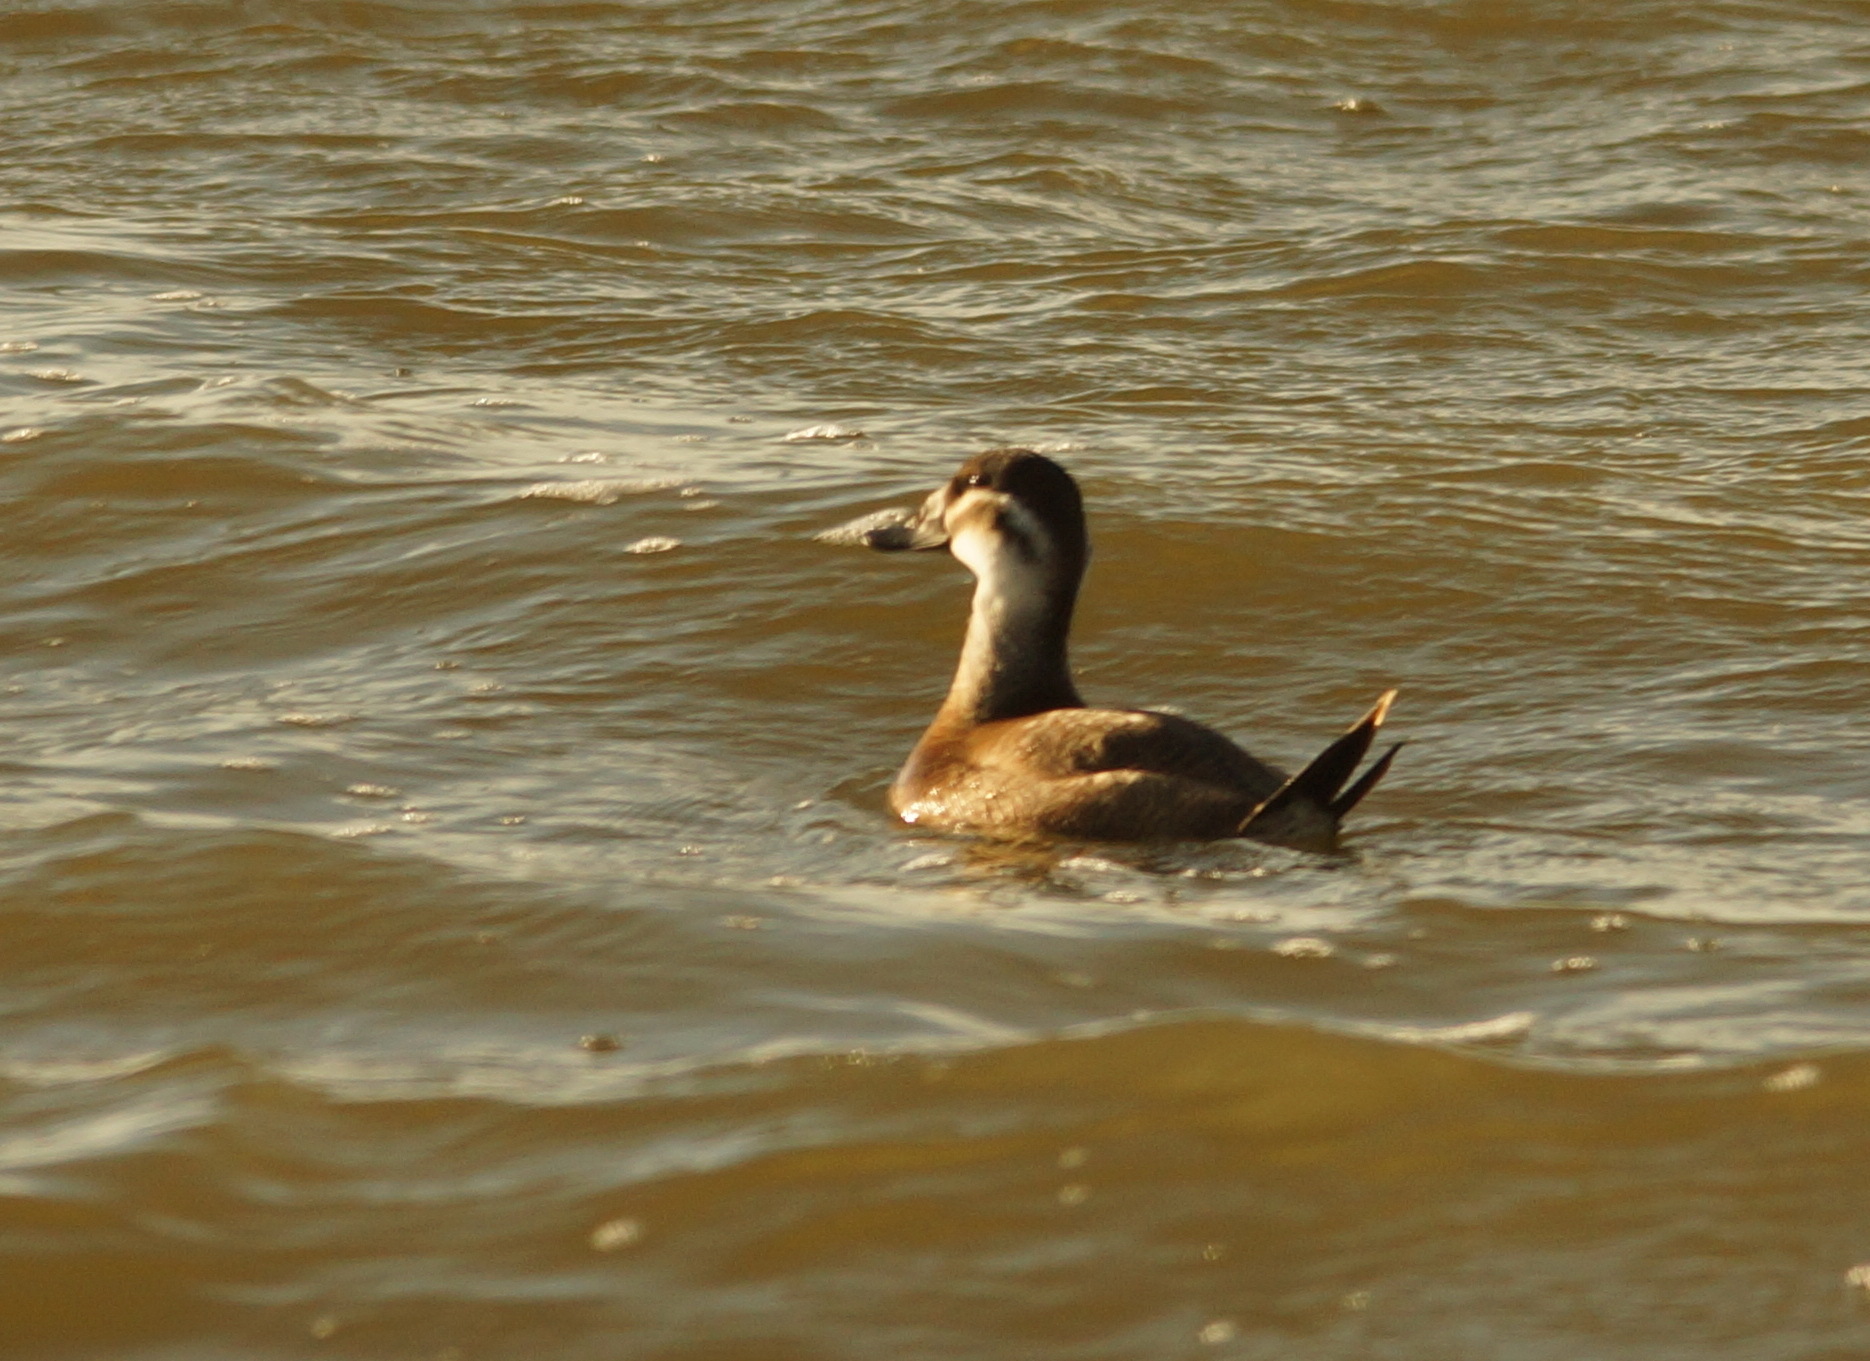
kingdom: Animalia
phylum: Chordata
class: Aves
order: Anseriformes
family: Anatidae
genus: Oxyura
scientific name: Oxyura leucocephala
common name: White-headed duck
